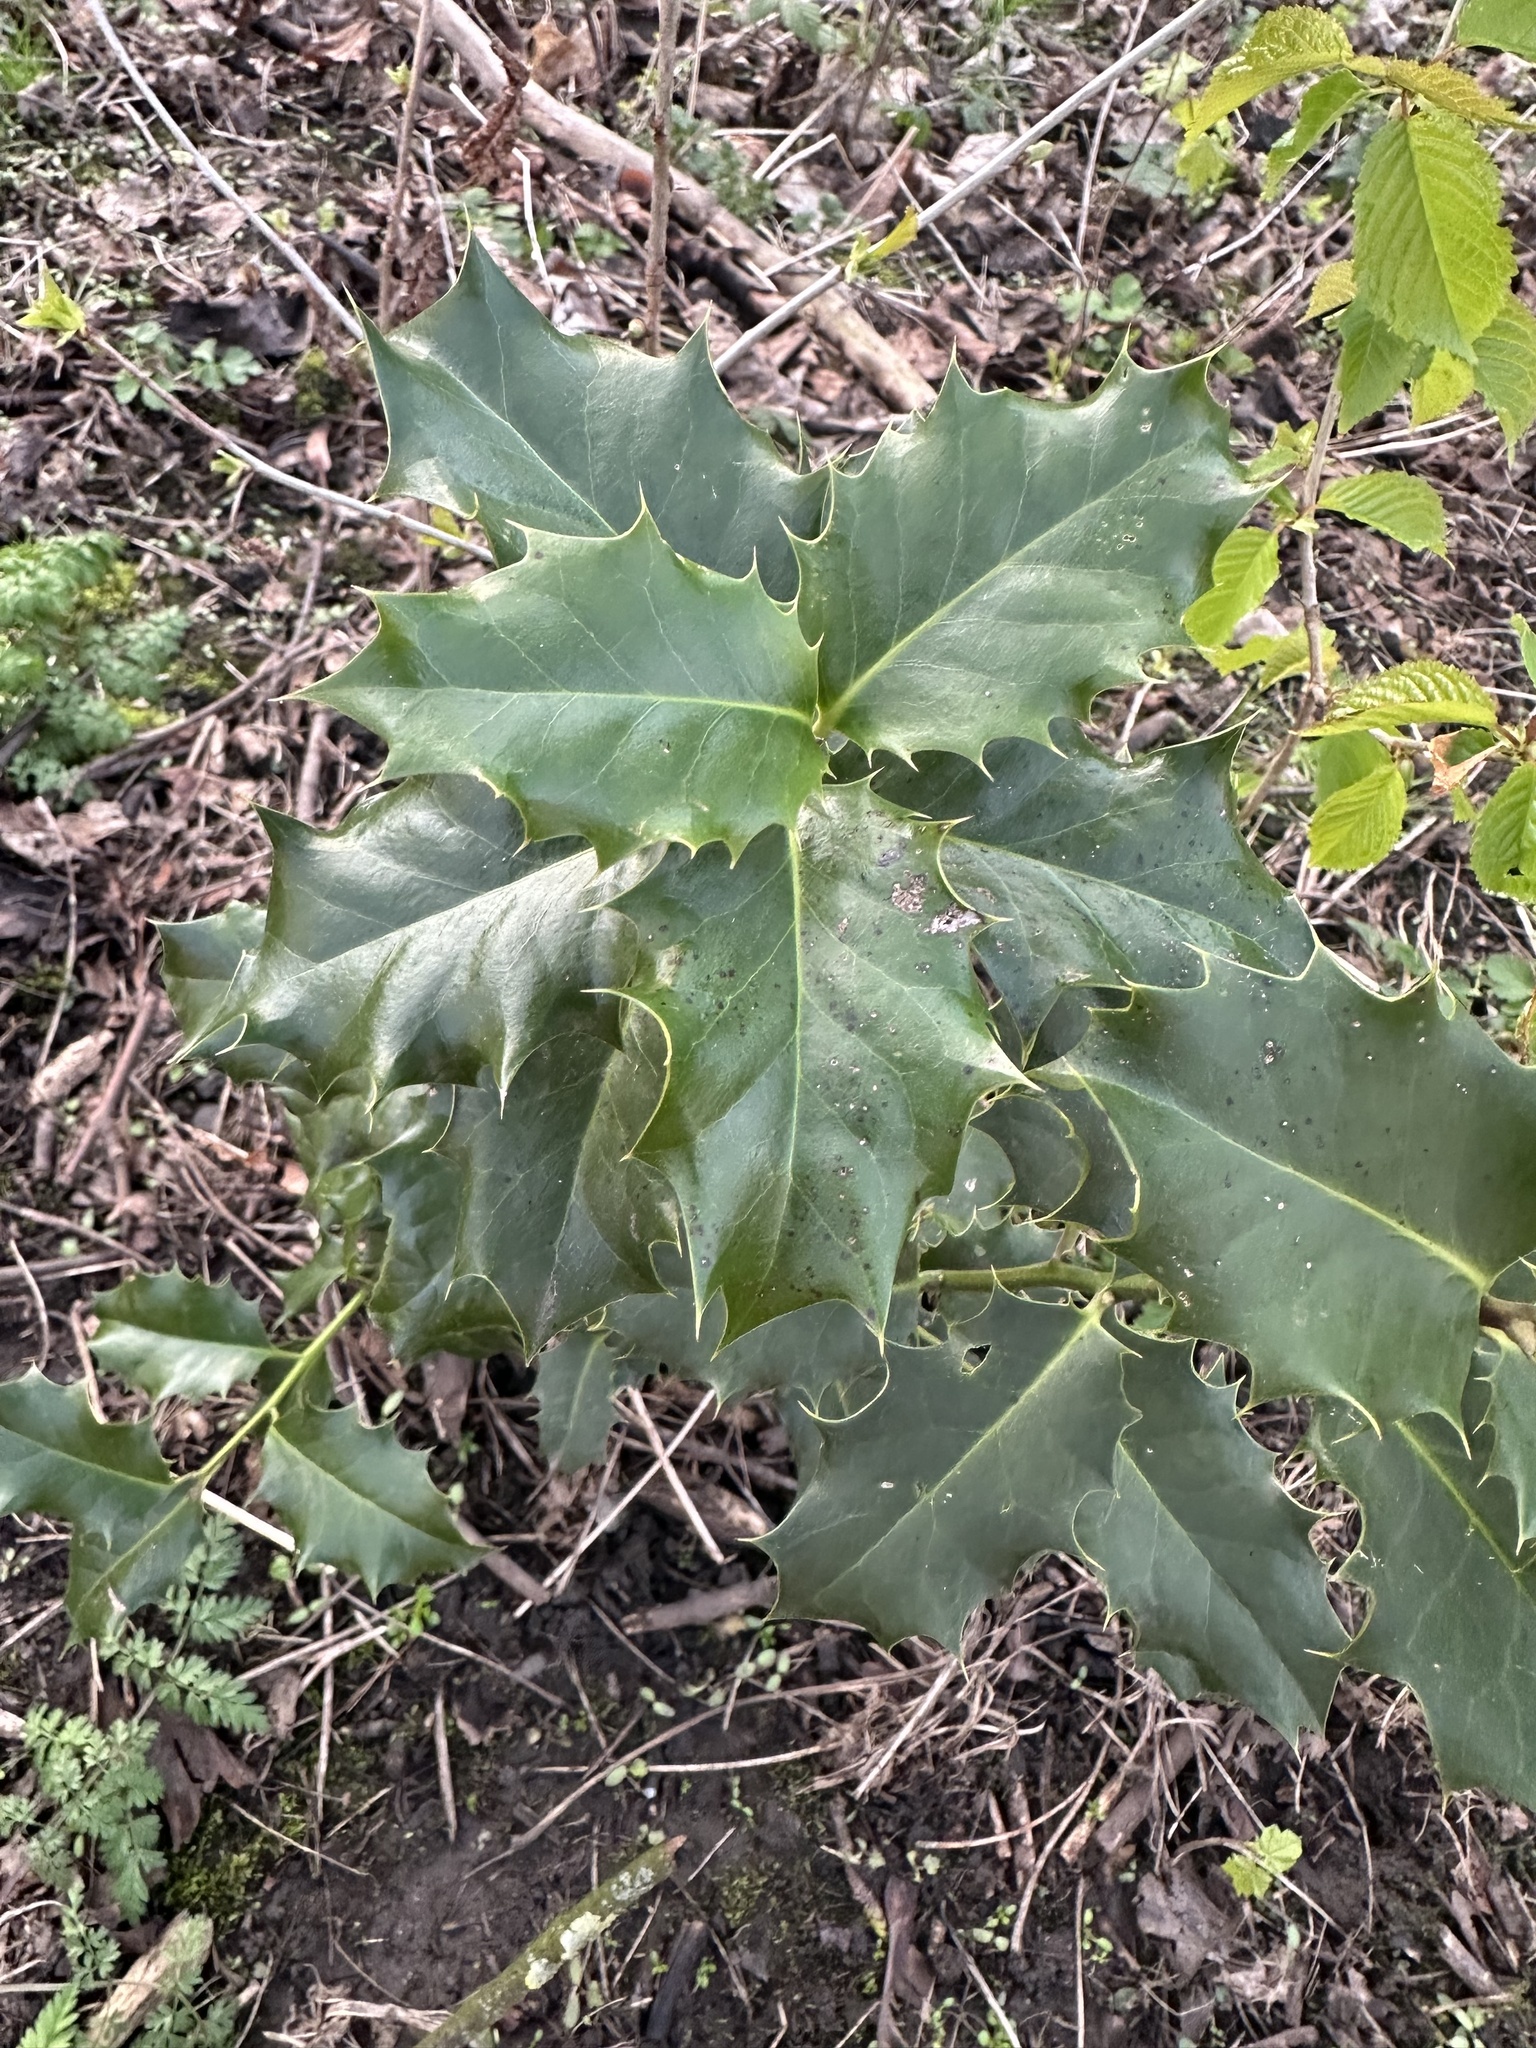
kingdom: Plantae
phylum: Tracheophyta
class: Magnoliopsida
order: Aquifoliales
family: Aquifoliaceae
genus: Ilex
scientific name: Ilex aquifolium
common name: English holly
